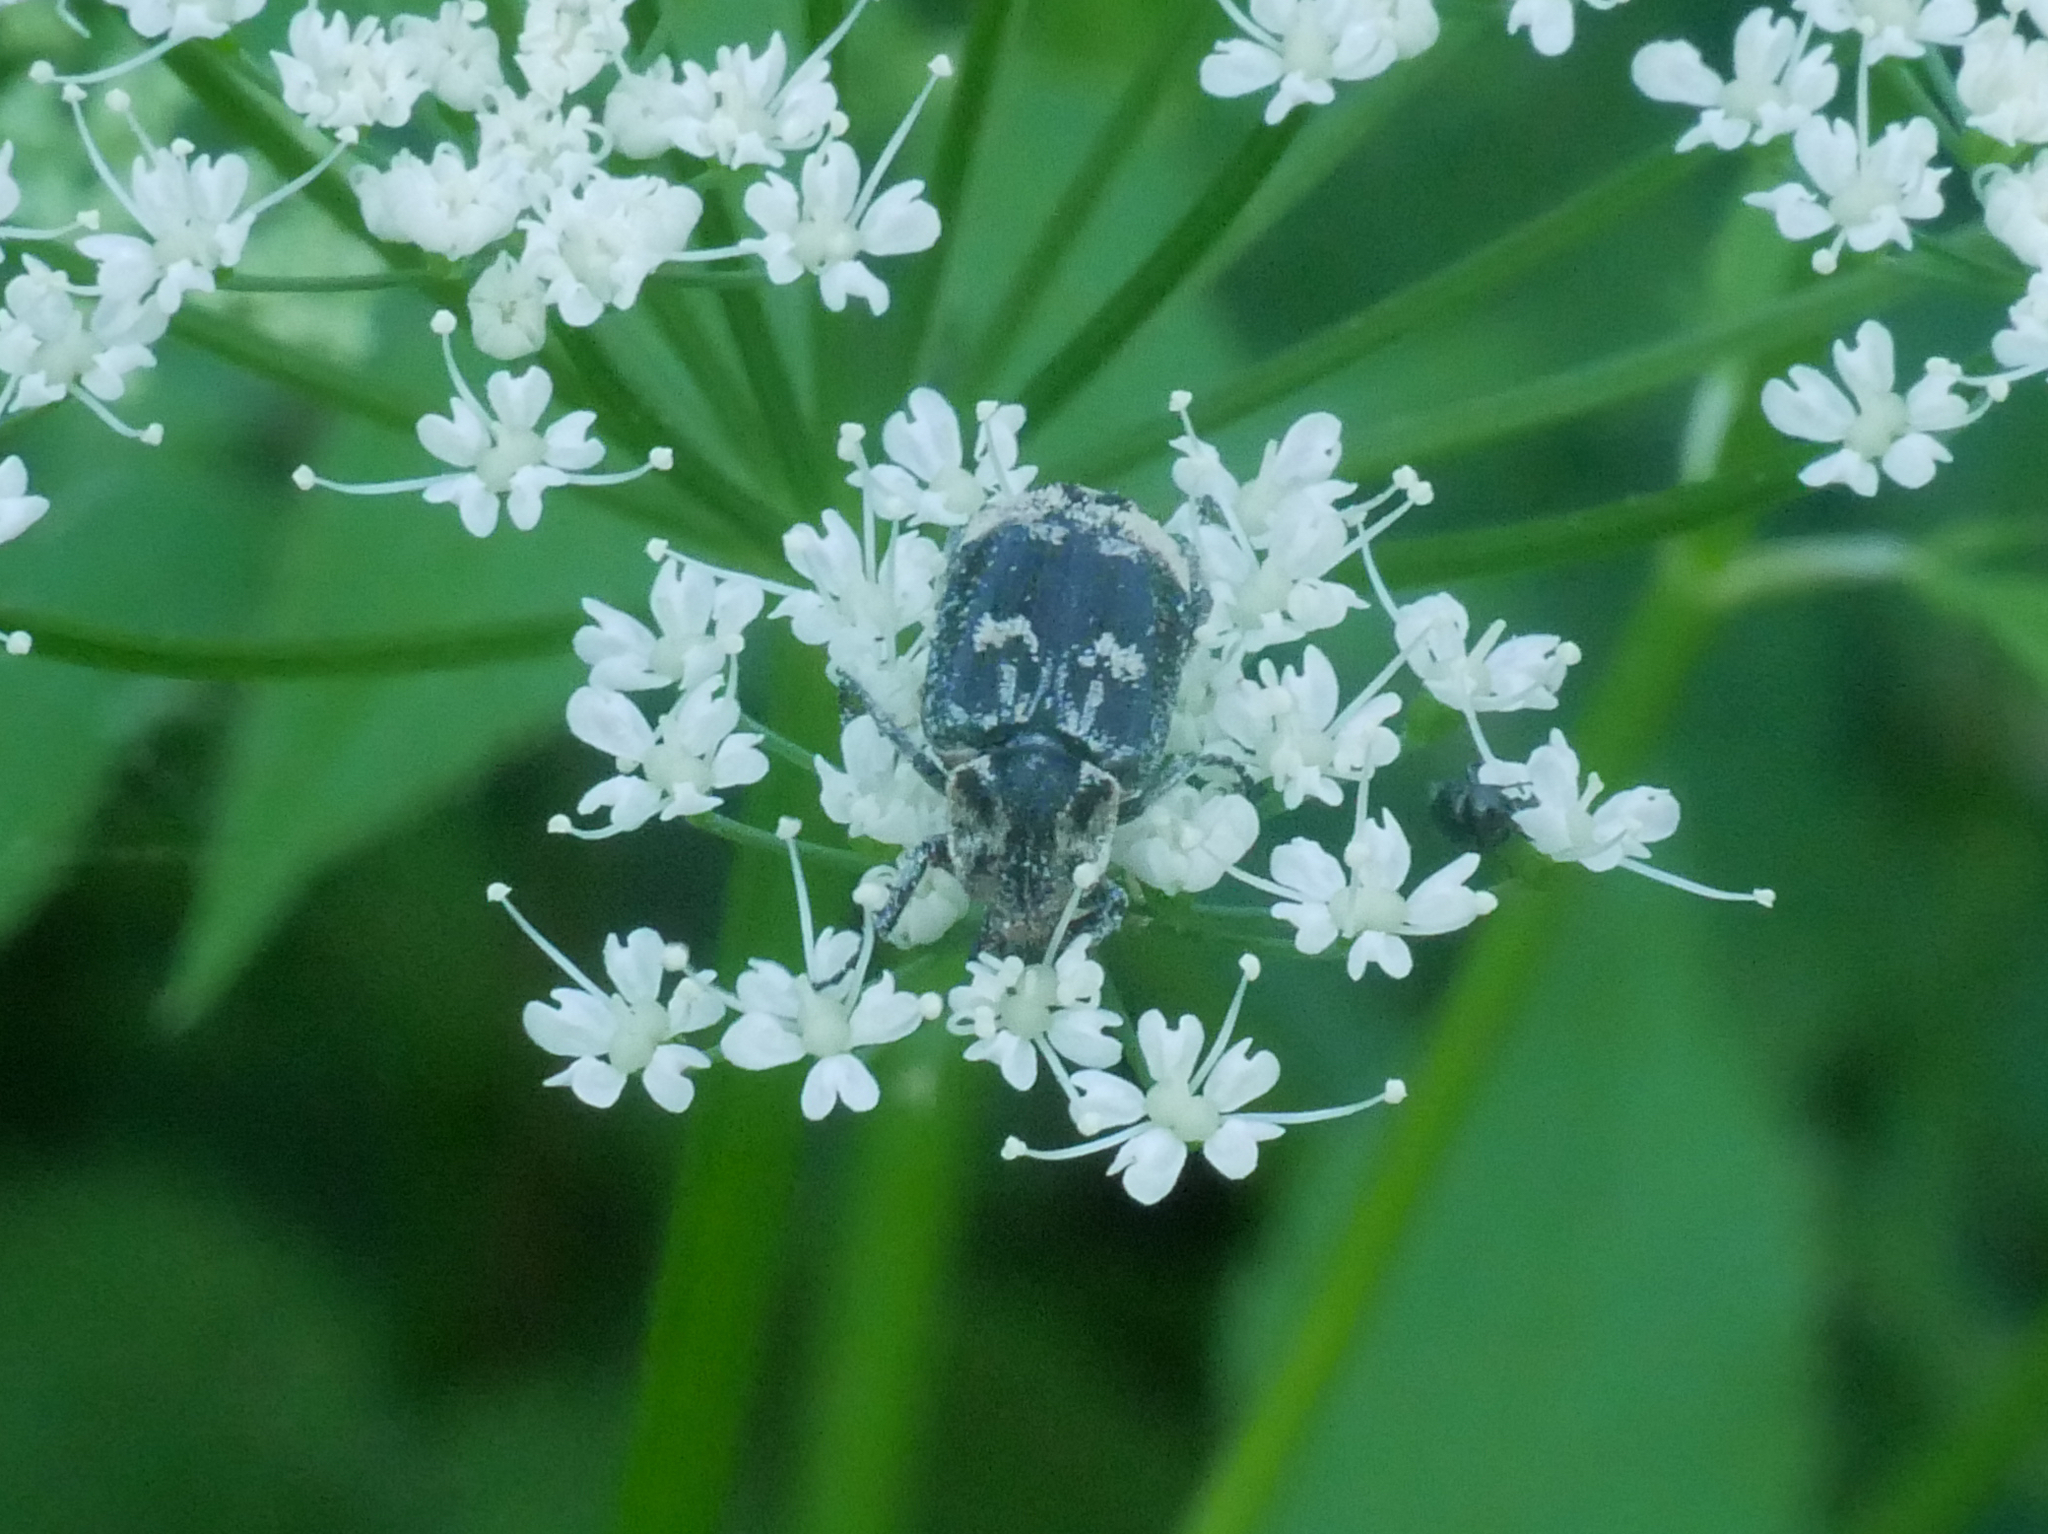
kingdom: Animalia
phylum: Arthropoda
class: Insecta
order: Coleoptera
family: Scarabaeidae
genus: Valgus
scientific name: Valgus hemipterus
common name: Bug flower chafer
